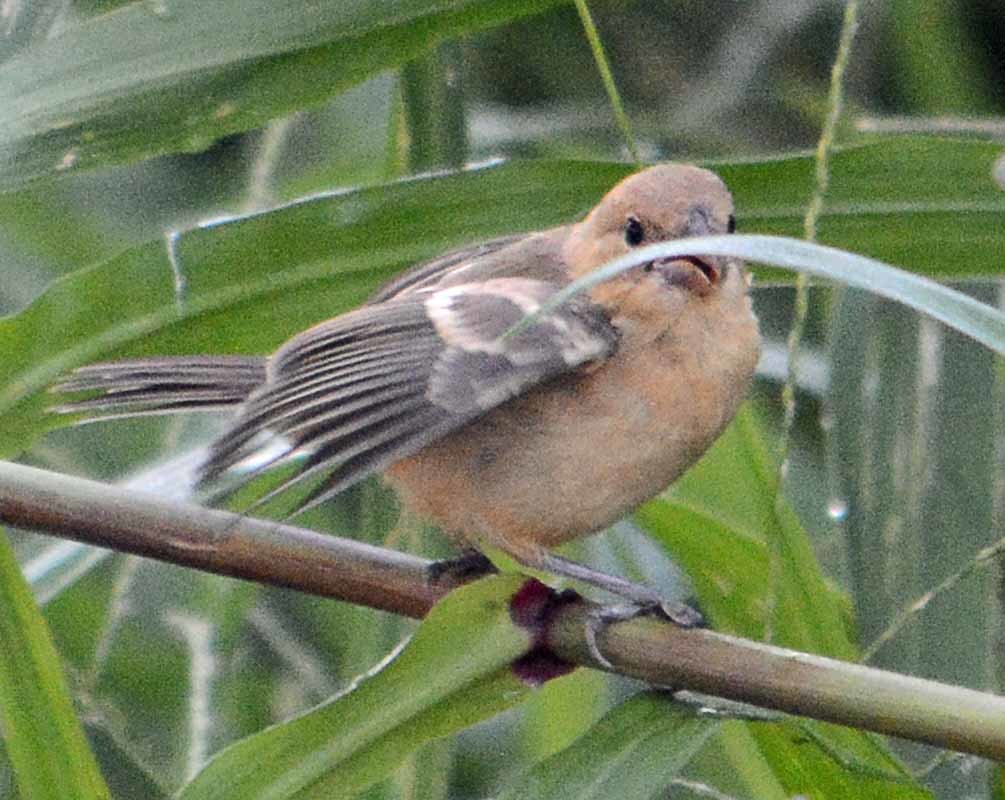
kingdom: Animalia
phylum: Chordata
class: Aves
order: Passeriformes
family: Thraupidae
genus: Sporophila
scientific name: Sporophila morelleti
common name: Morelet's seedeater
